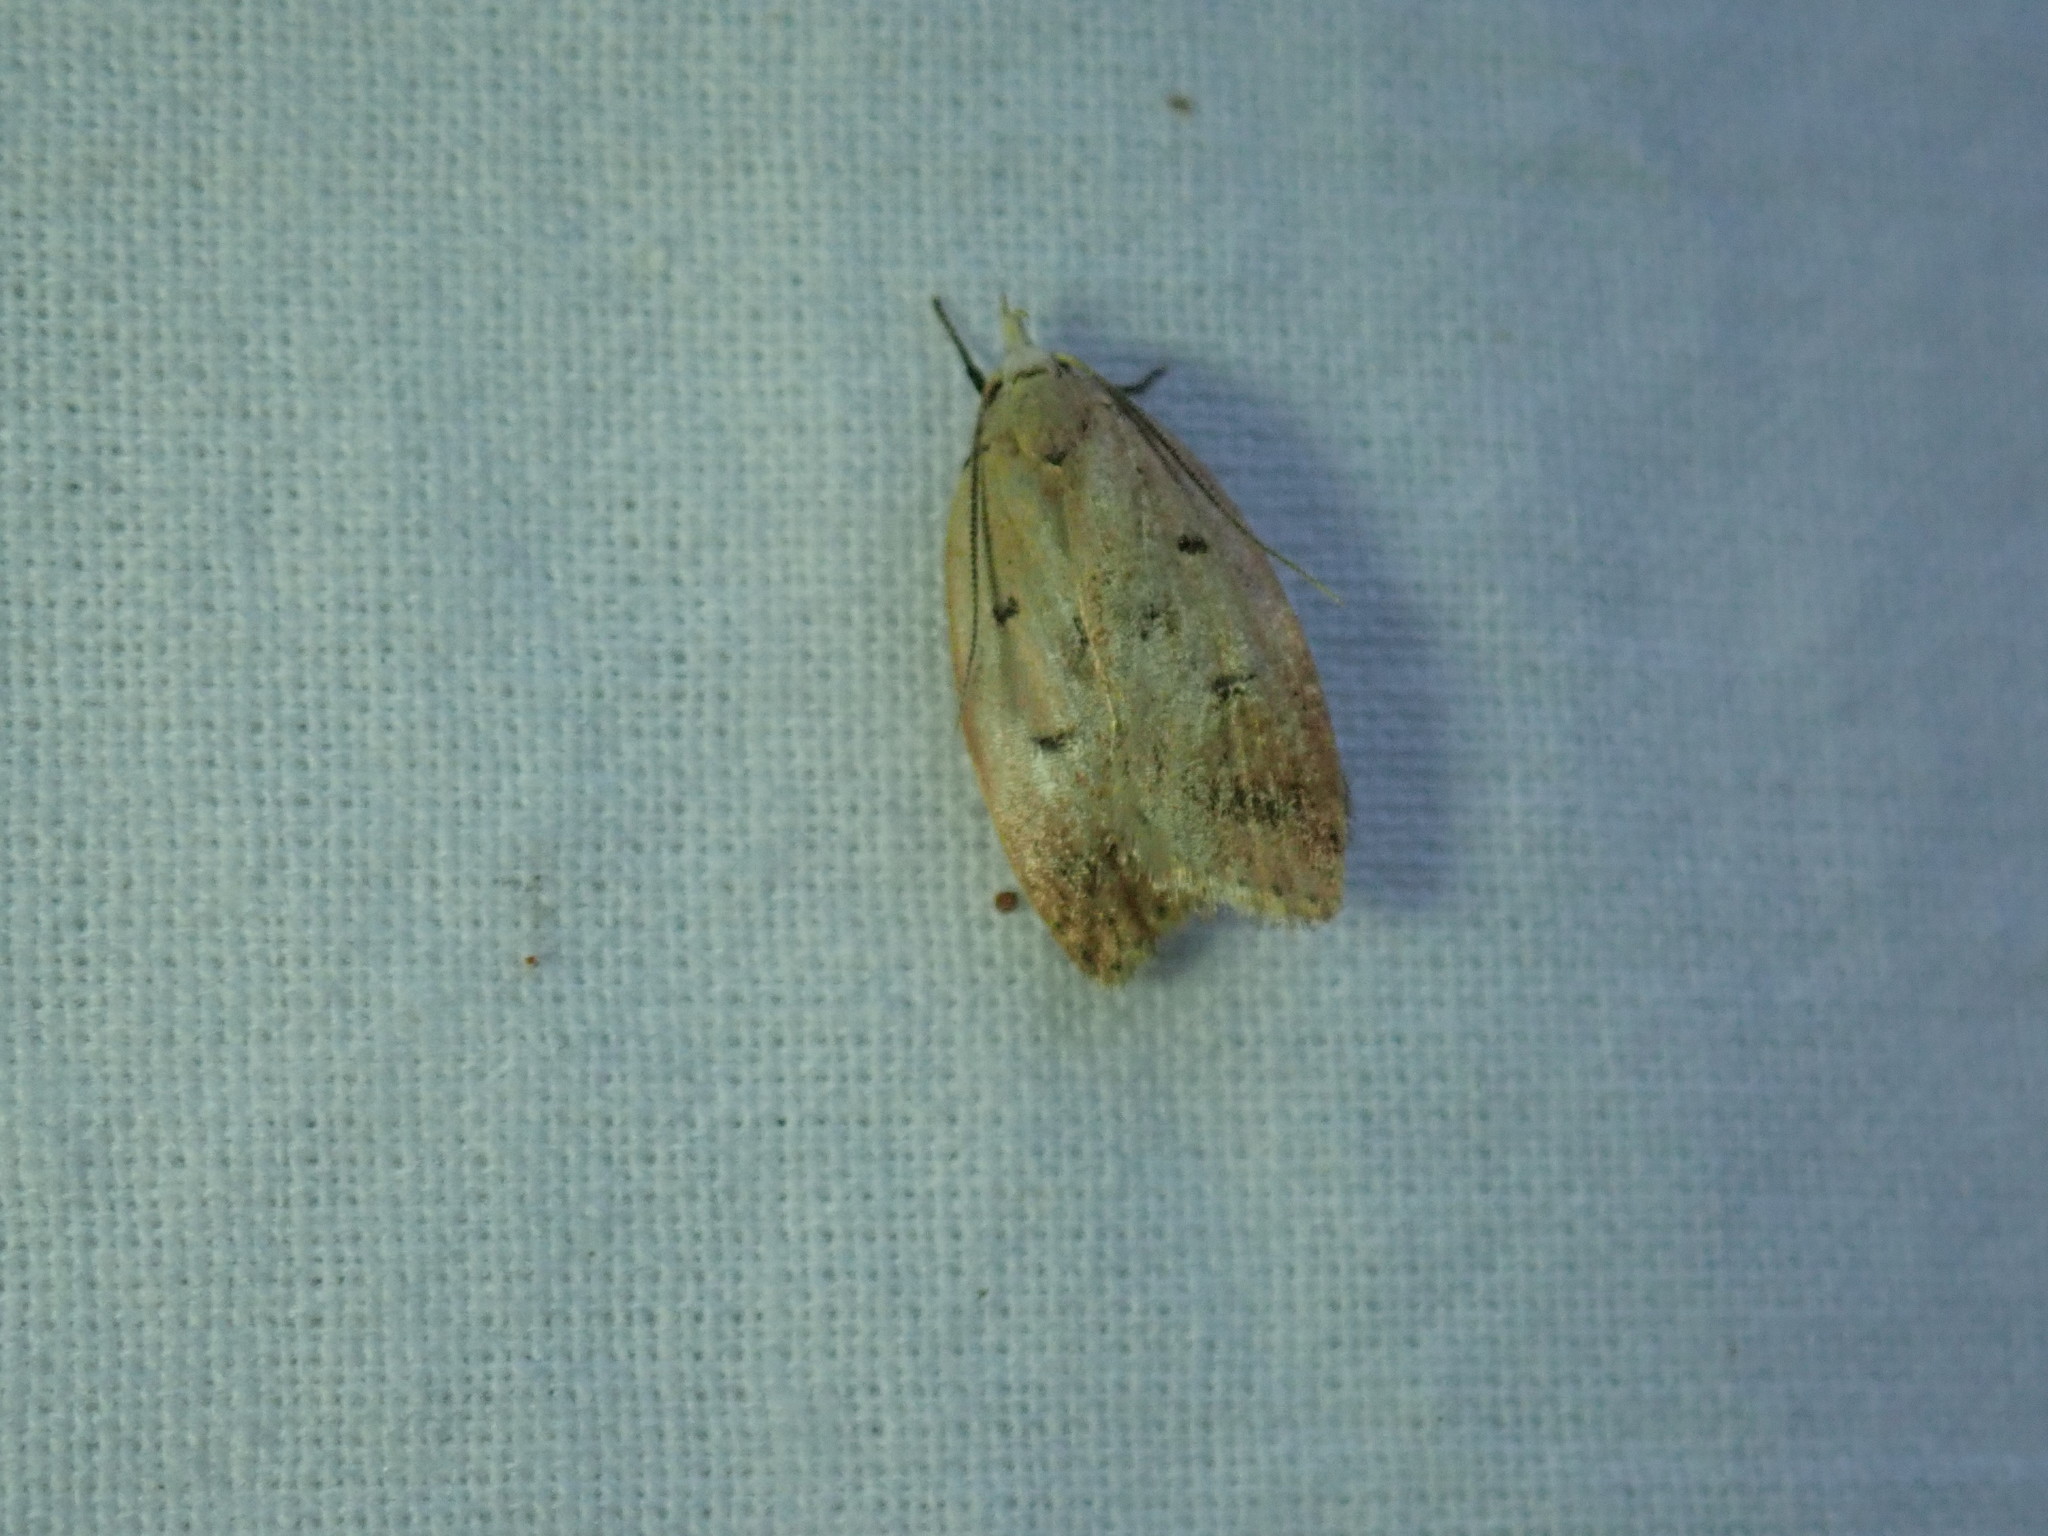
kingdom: Animalia
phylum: Arthropoda
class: Insecta
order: Lepidoptera
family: Peleopodidae
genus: Machimia
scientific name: Machimia tentoriferella
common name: Gold-striped leaftier moth
